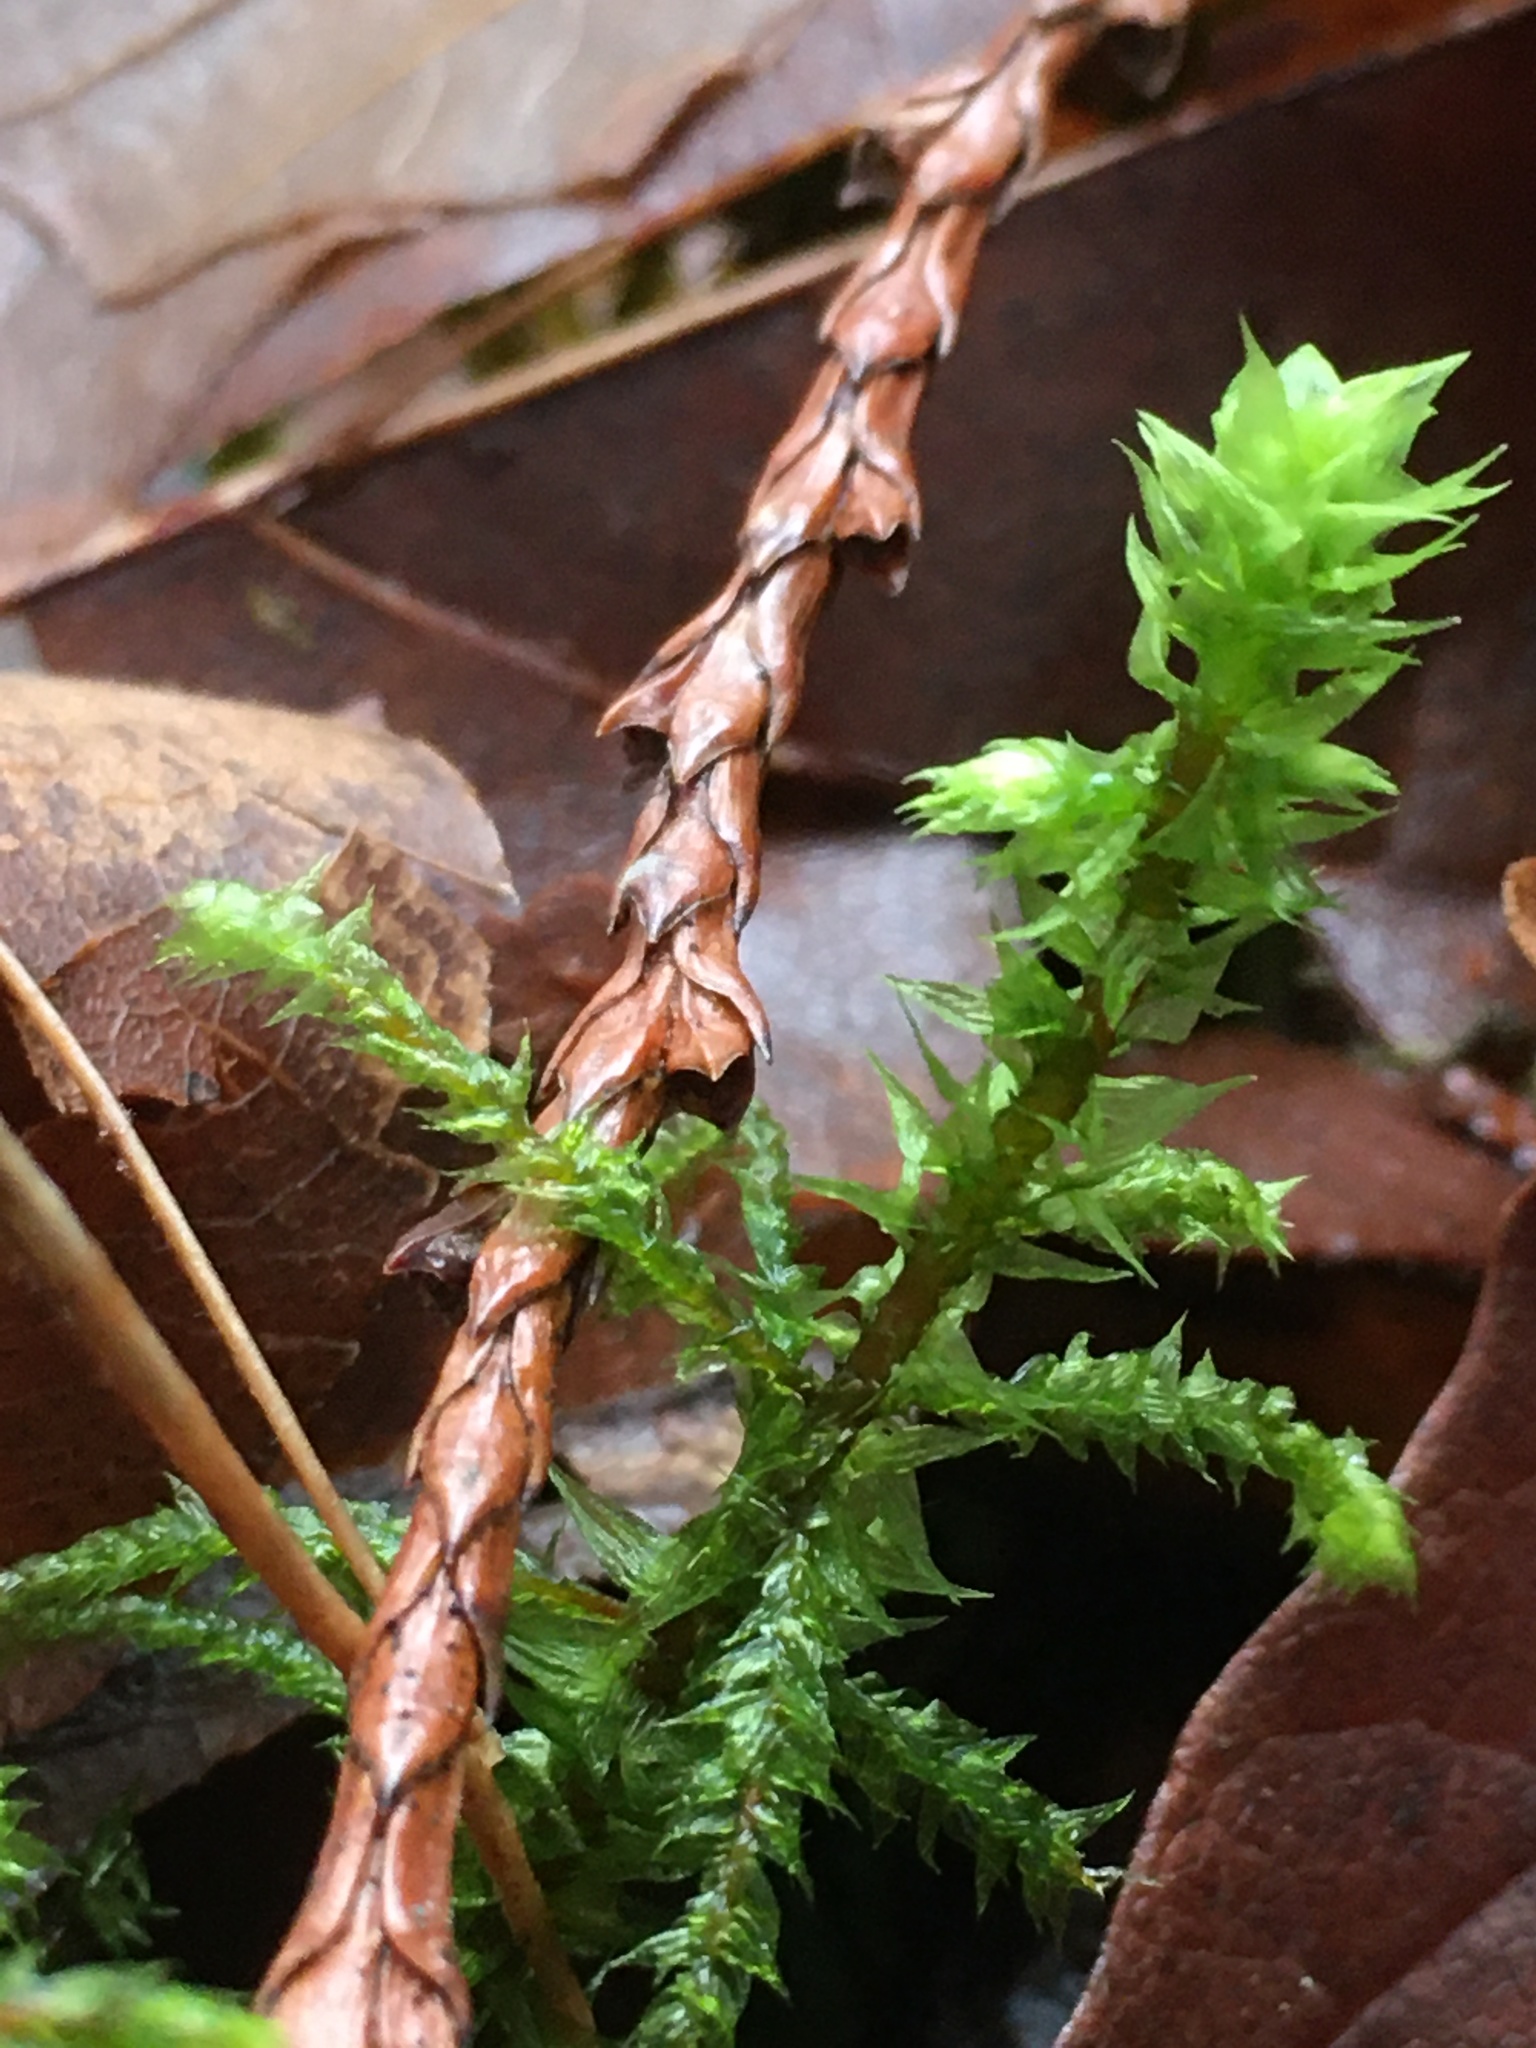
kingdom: Plantae
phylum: Bryophyta
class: Bryopsida
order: Hypnales
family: Hylocomiaceae
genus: Hylocomiadelphus
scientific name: Hylocomiadelphus triquetrus
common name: Rough goose neck moss
